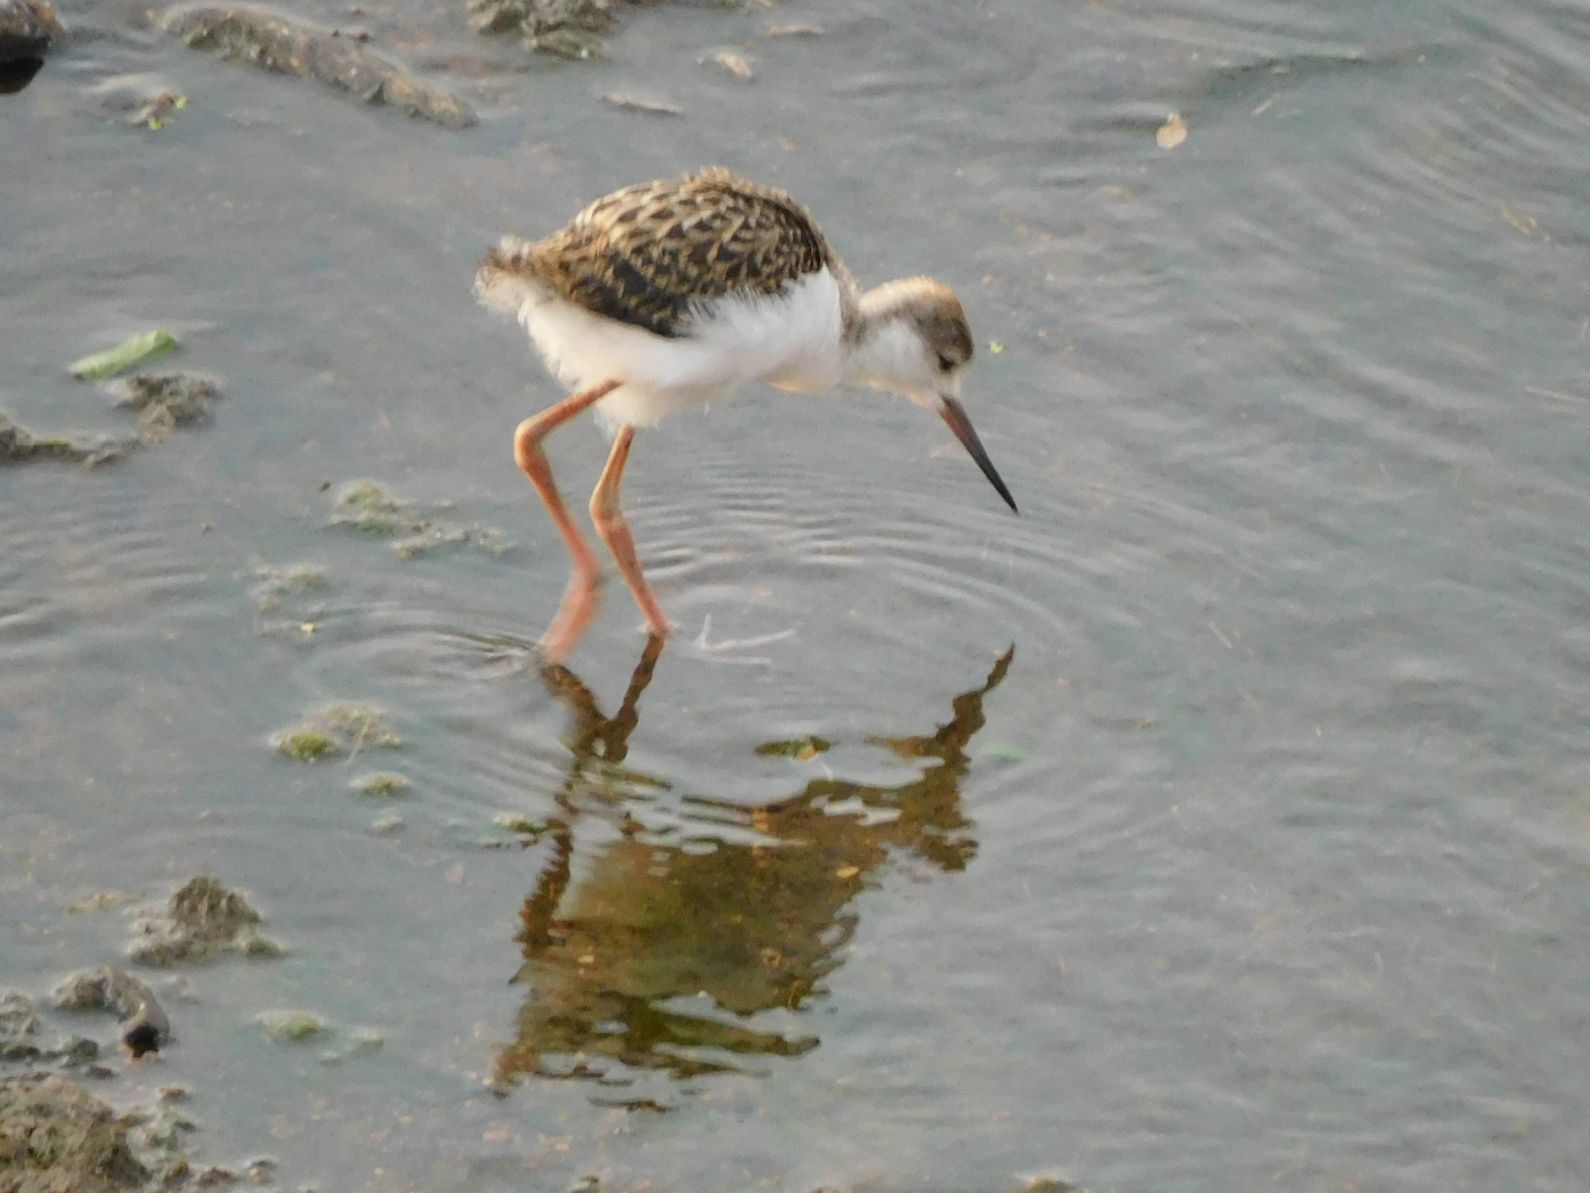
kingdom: Animalia
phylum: Chordata
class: Aves
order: Charadriiformes
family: Recurvirostridae
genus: Himantopus
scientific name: Himantopus himantopus
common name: Black-winged stilt
